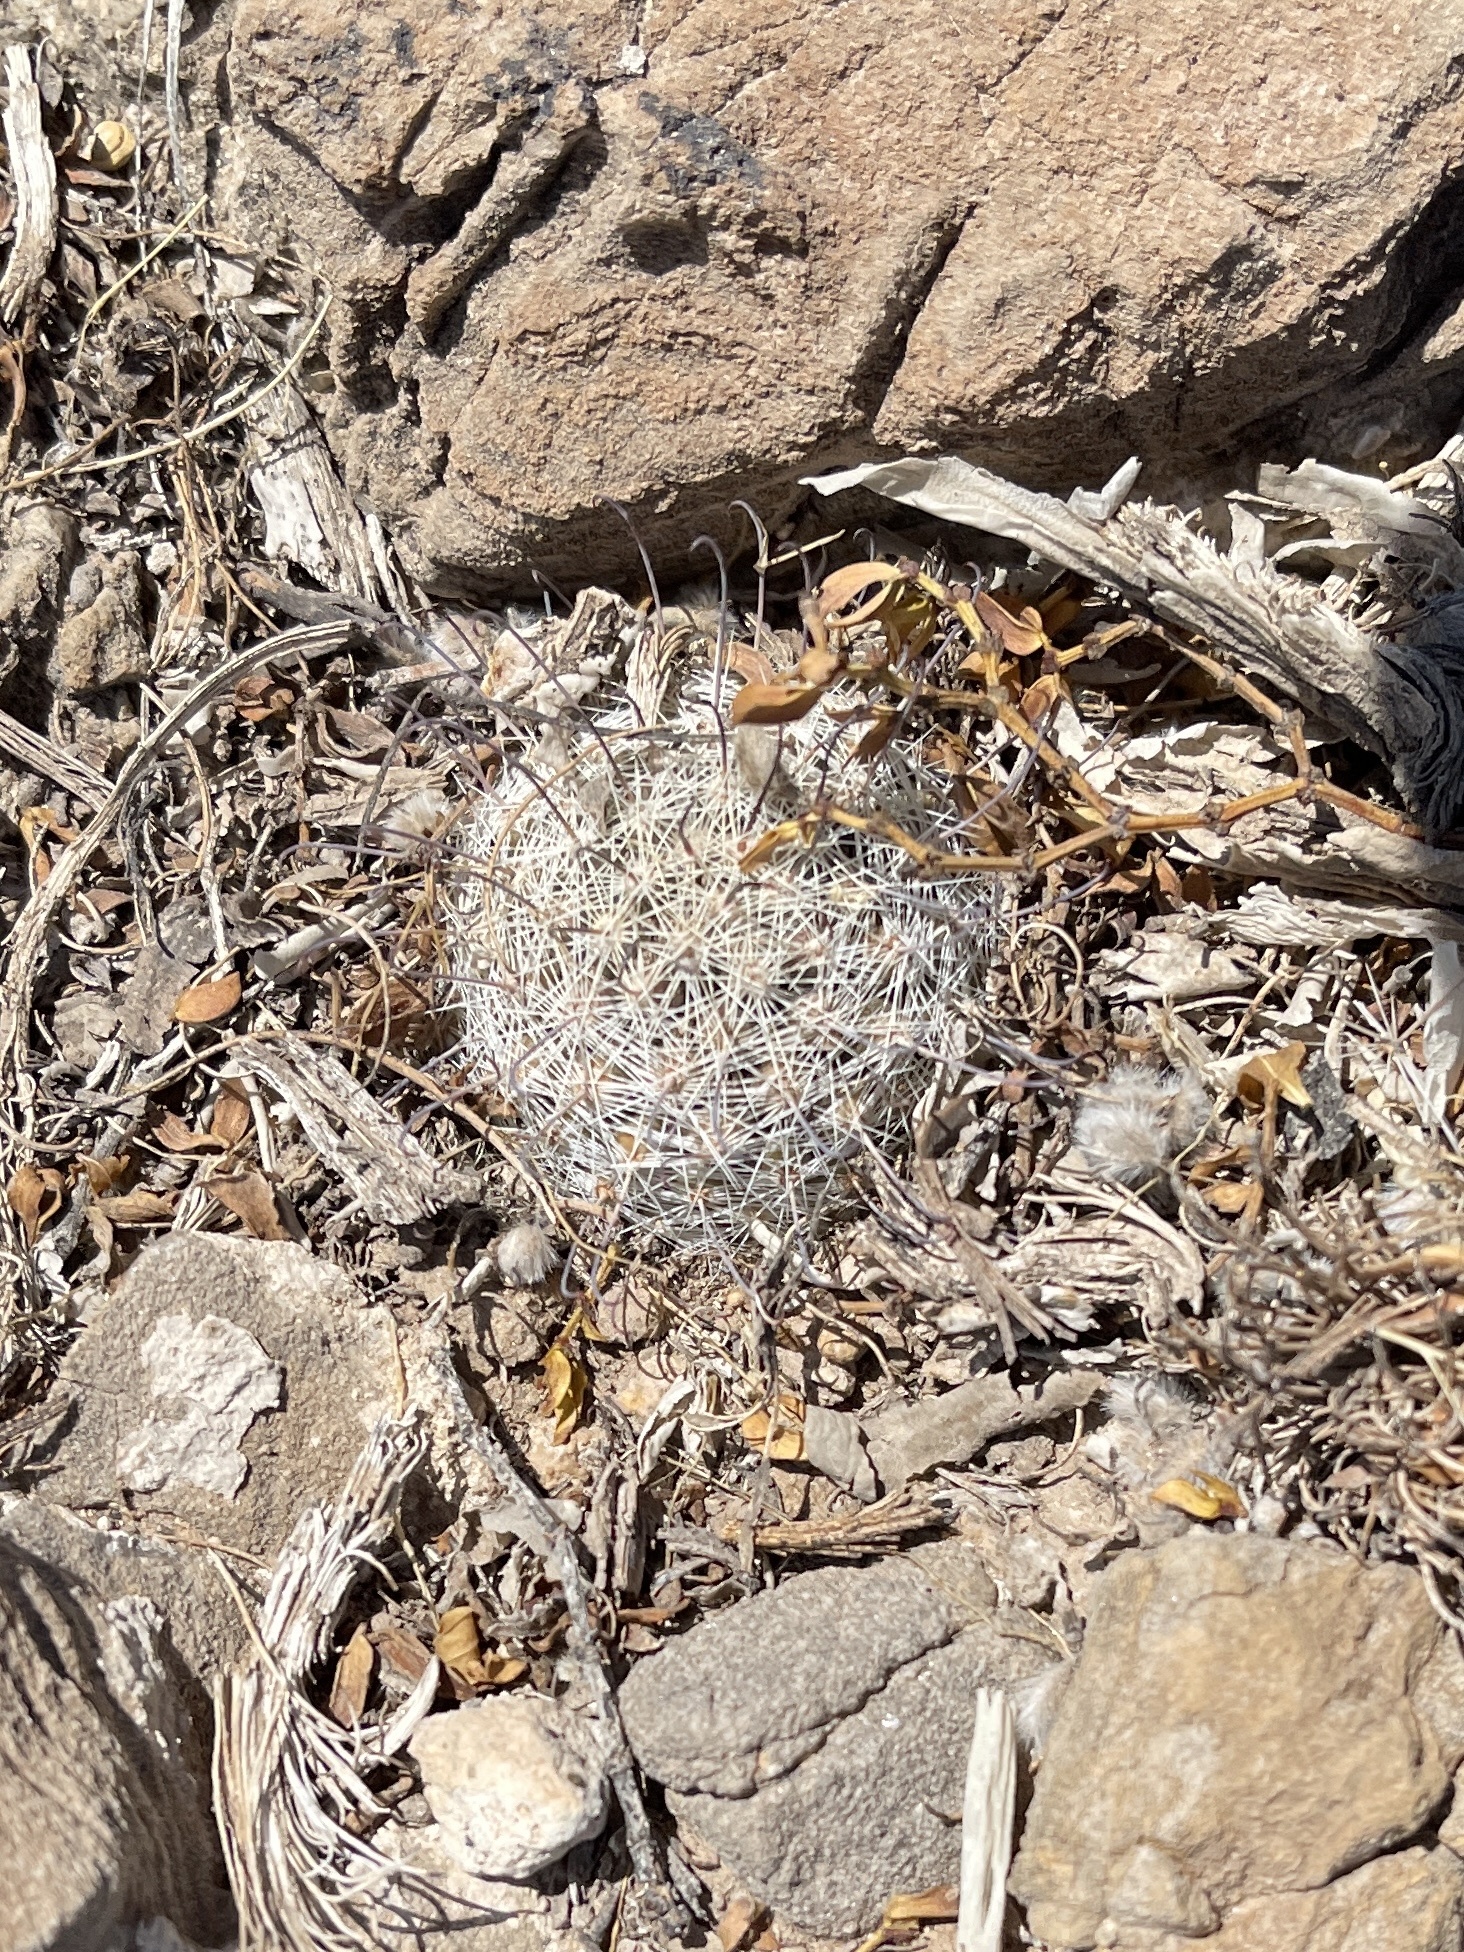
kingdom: Plantae
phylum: Tracheophyta
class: Magnoliopsida
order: Caryophyllales
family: Cactaceae
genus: Cochemiea
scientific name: Cochemiea grahamii
